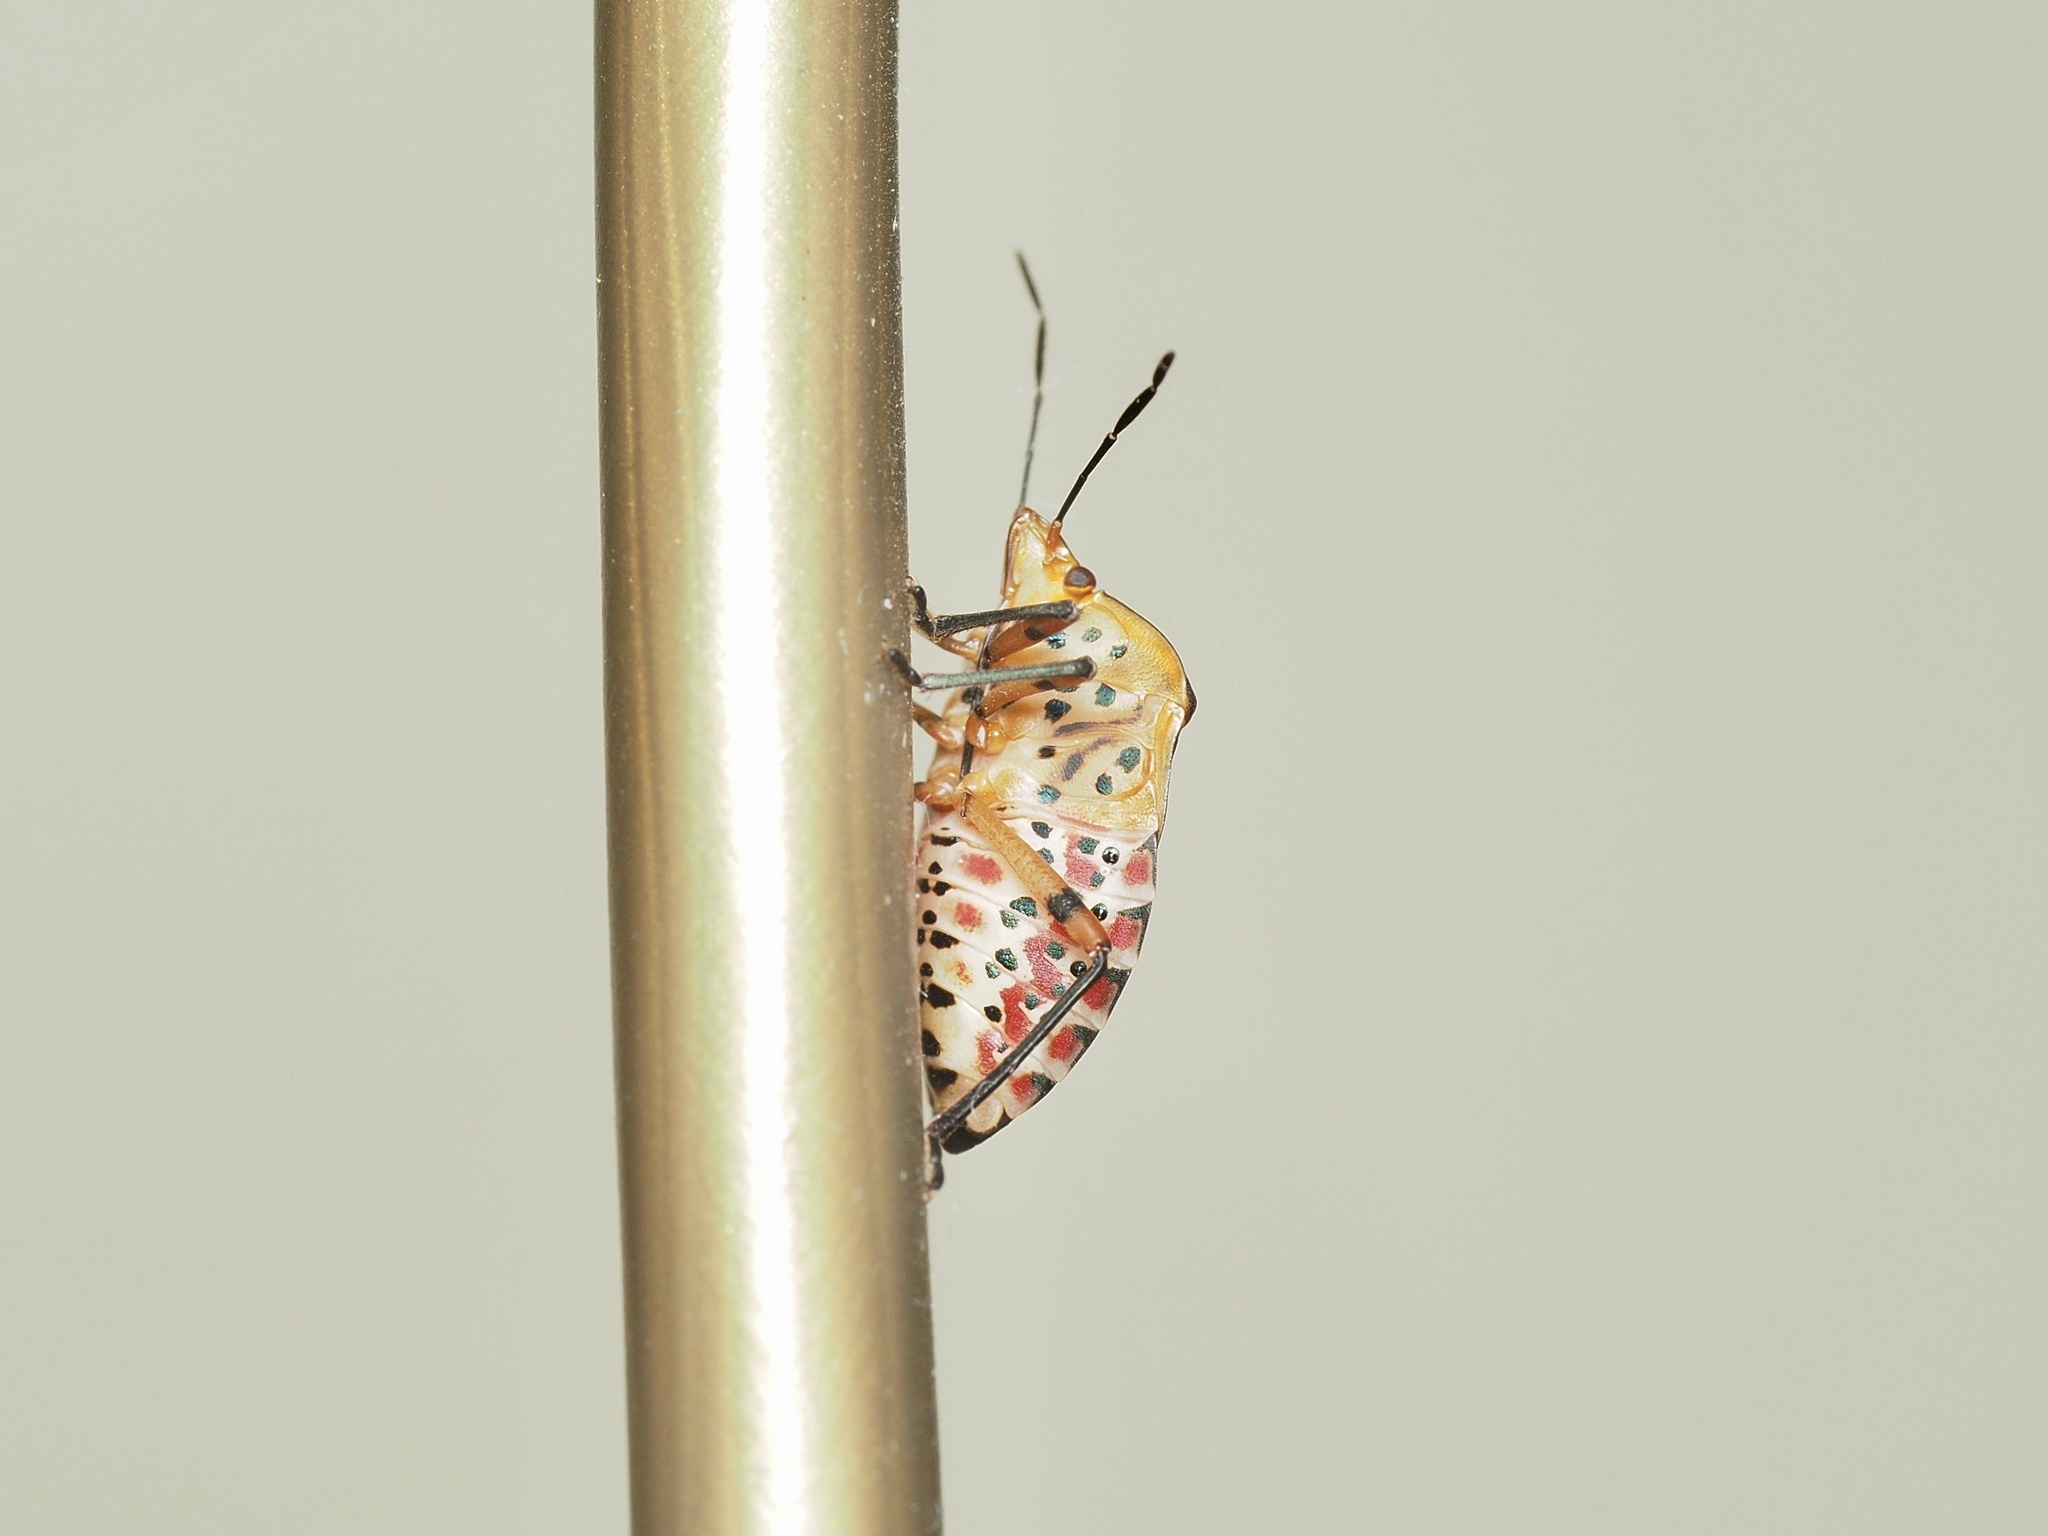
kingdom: Animalia
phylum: Arthropoda
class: Insecta
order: Hemiptera
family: Pentatomidae
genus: Caura
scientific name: Caura rufiventris
